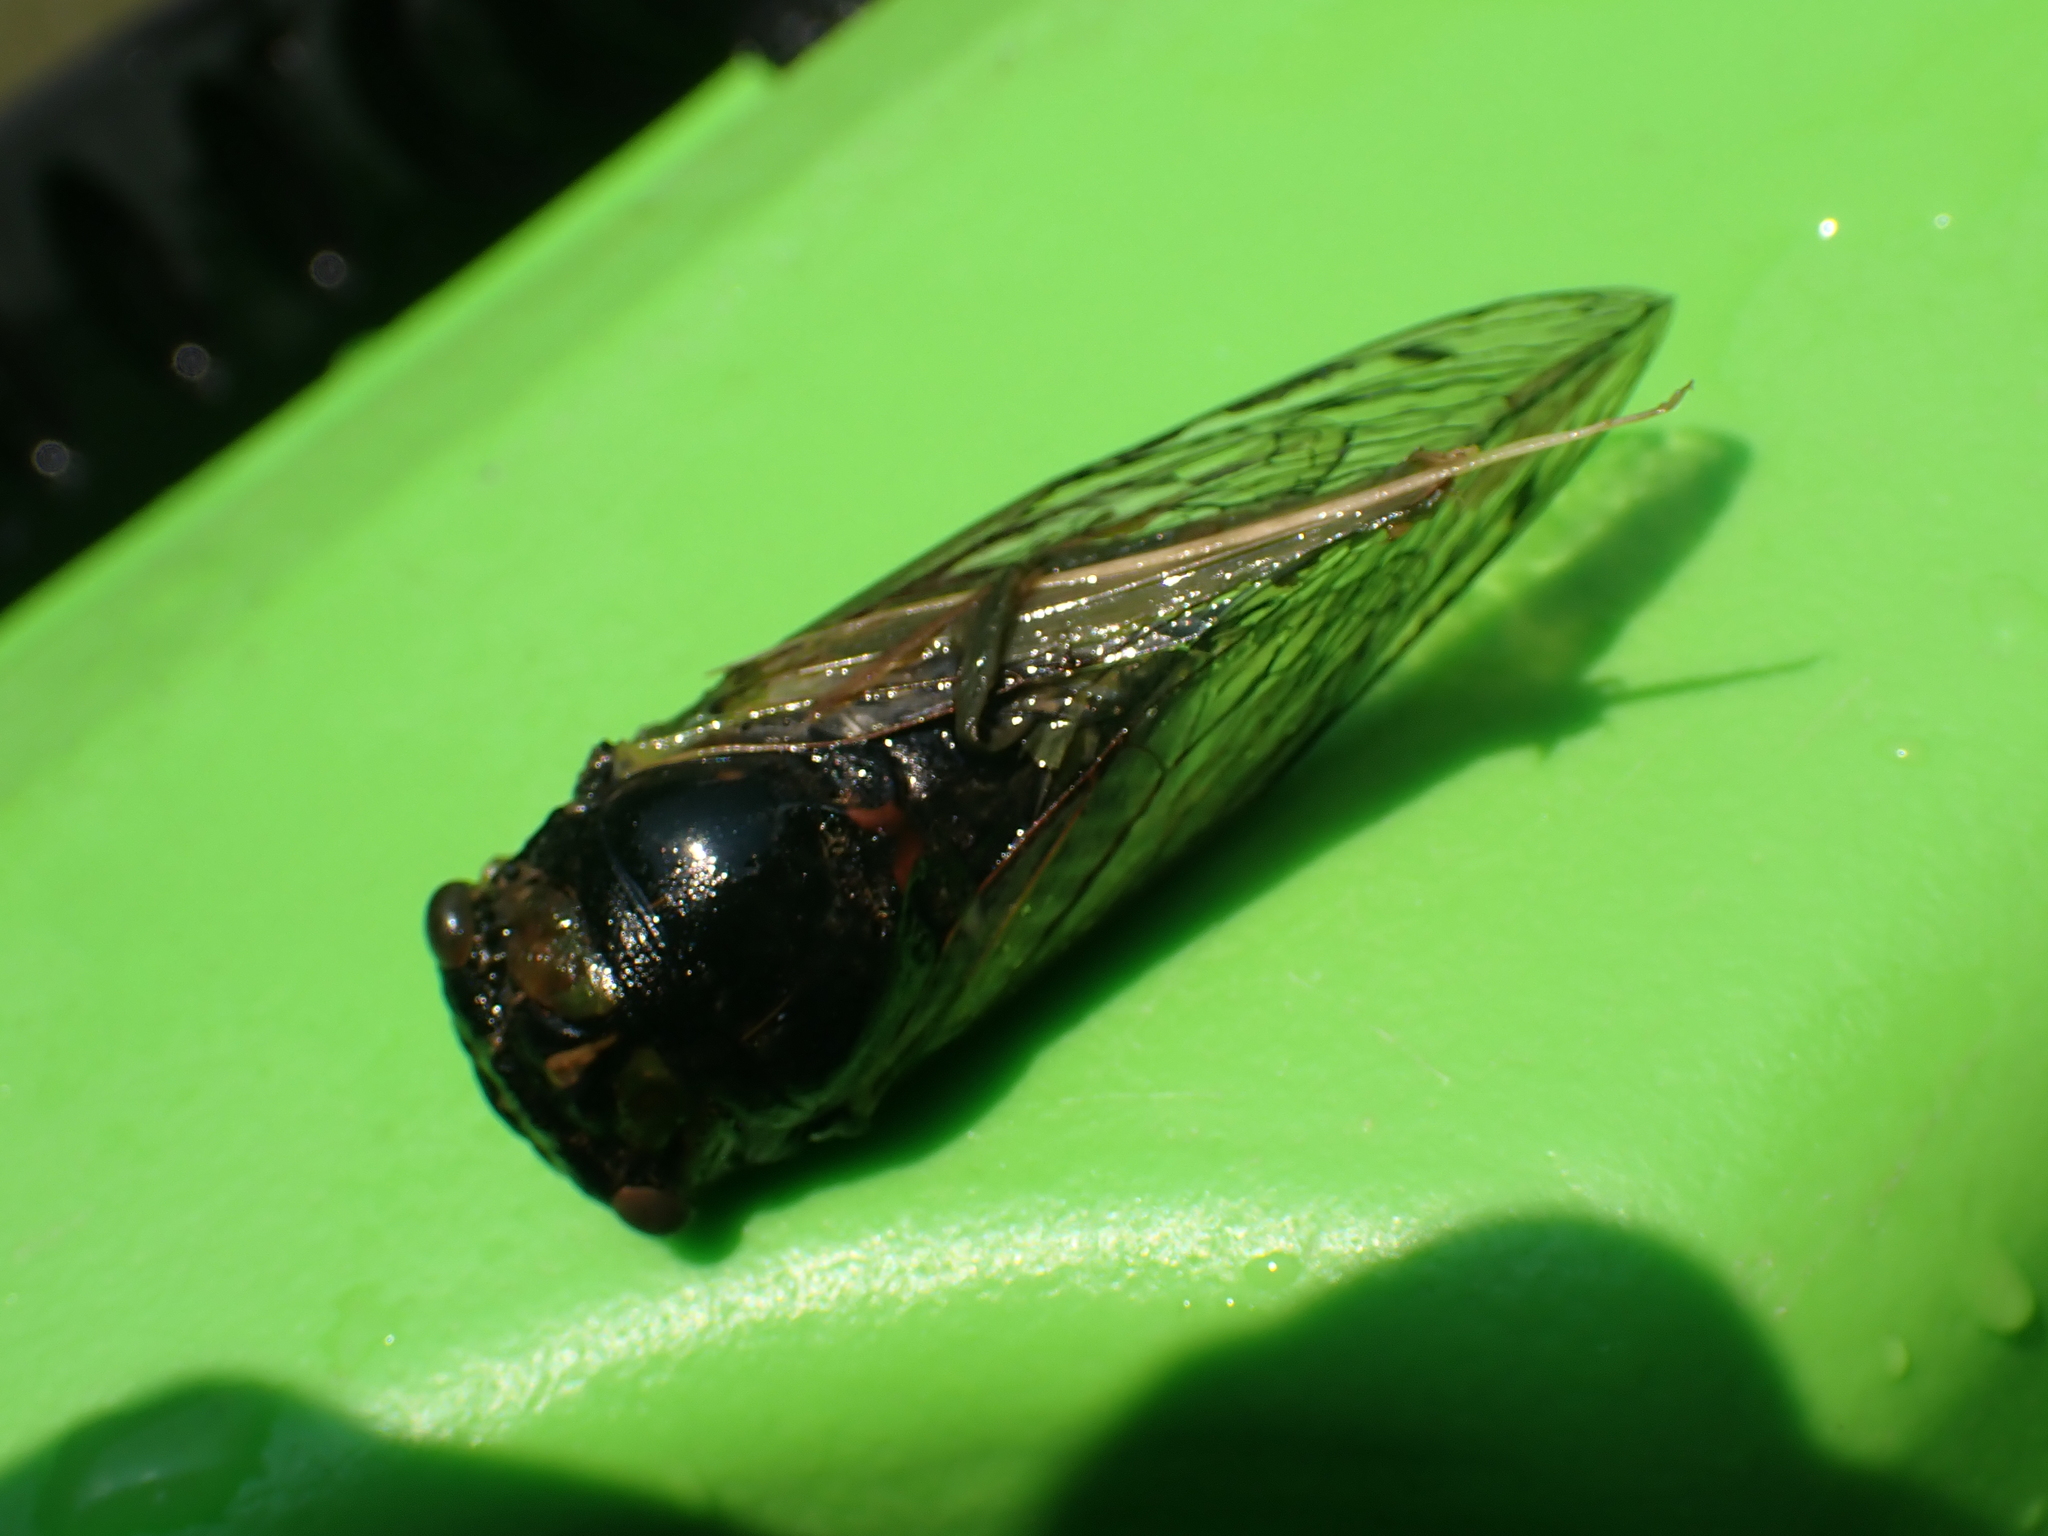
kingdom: Animalia
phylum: Arthropoda
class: Insecta
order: Hemiptera
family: Cicadidae
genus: Neotibicen
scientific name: Neotibicen tibicen
